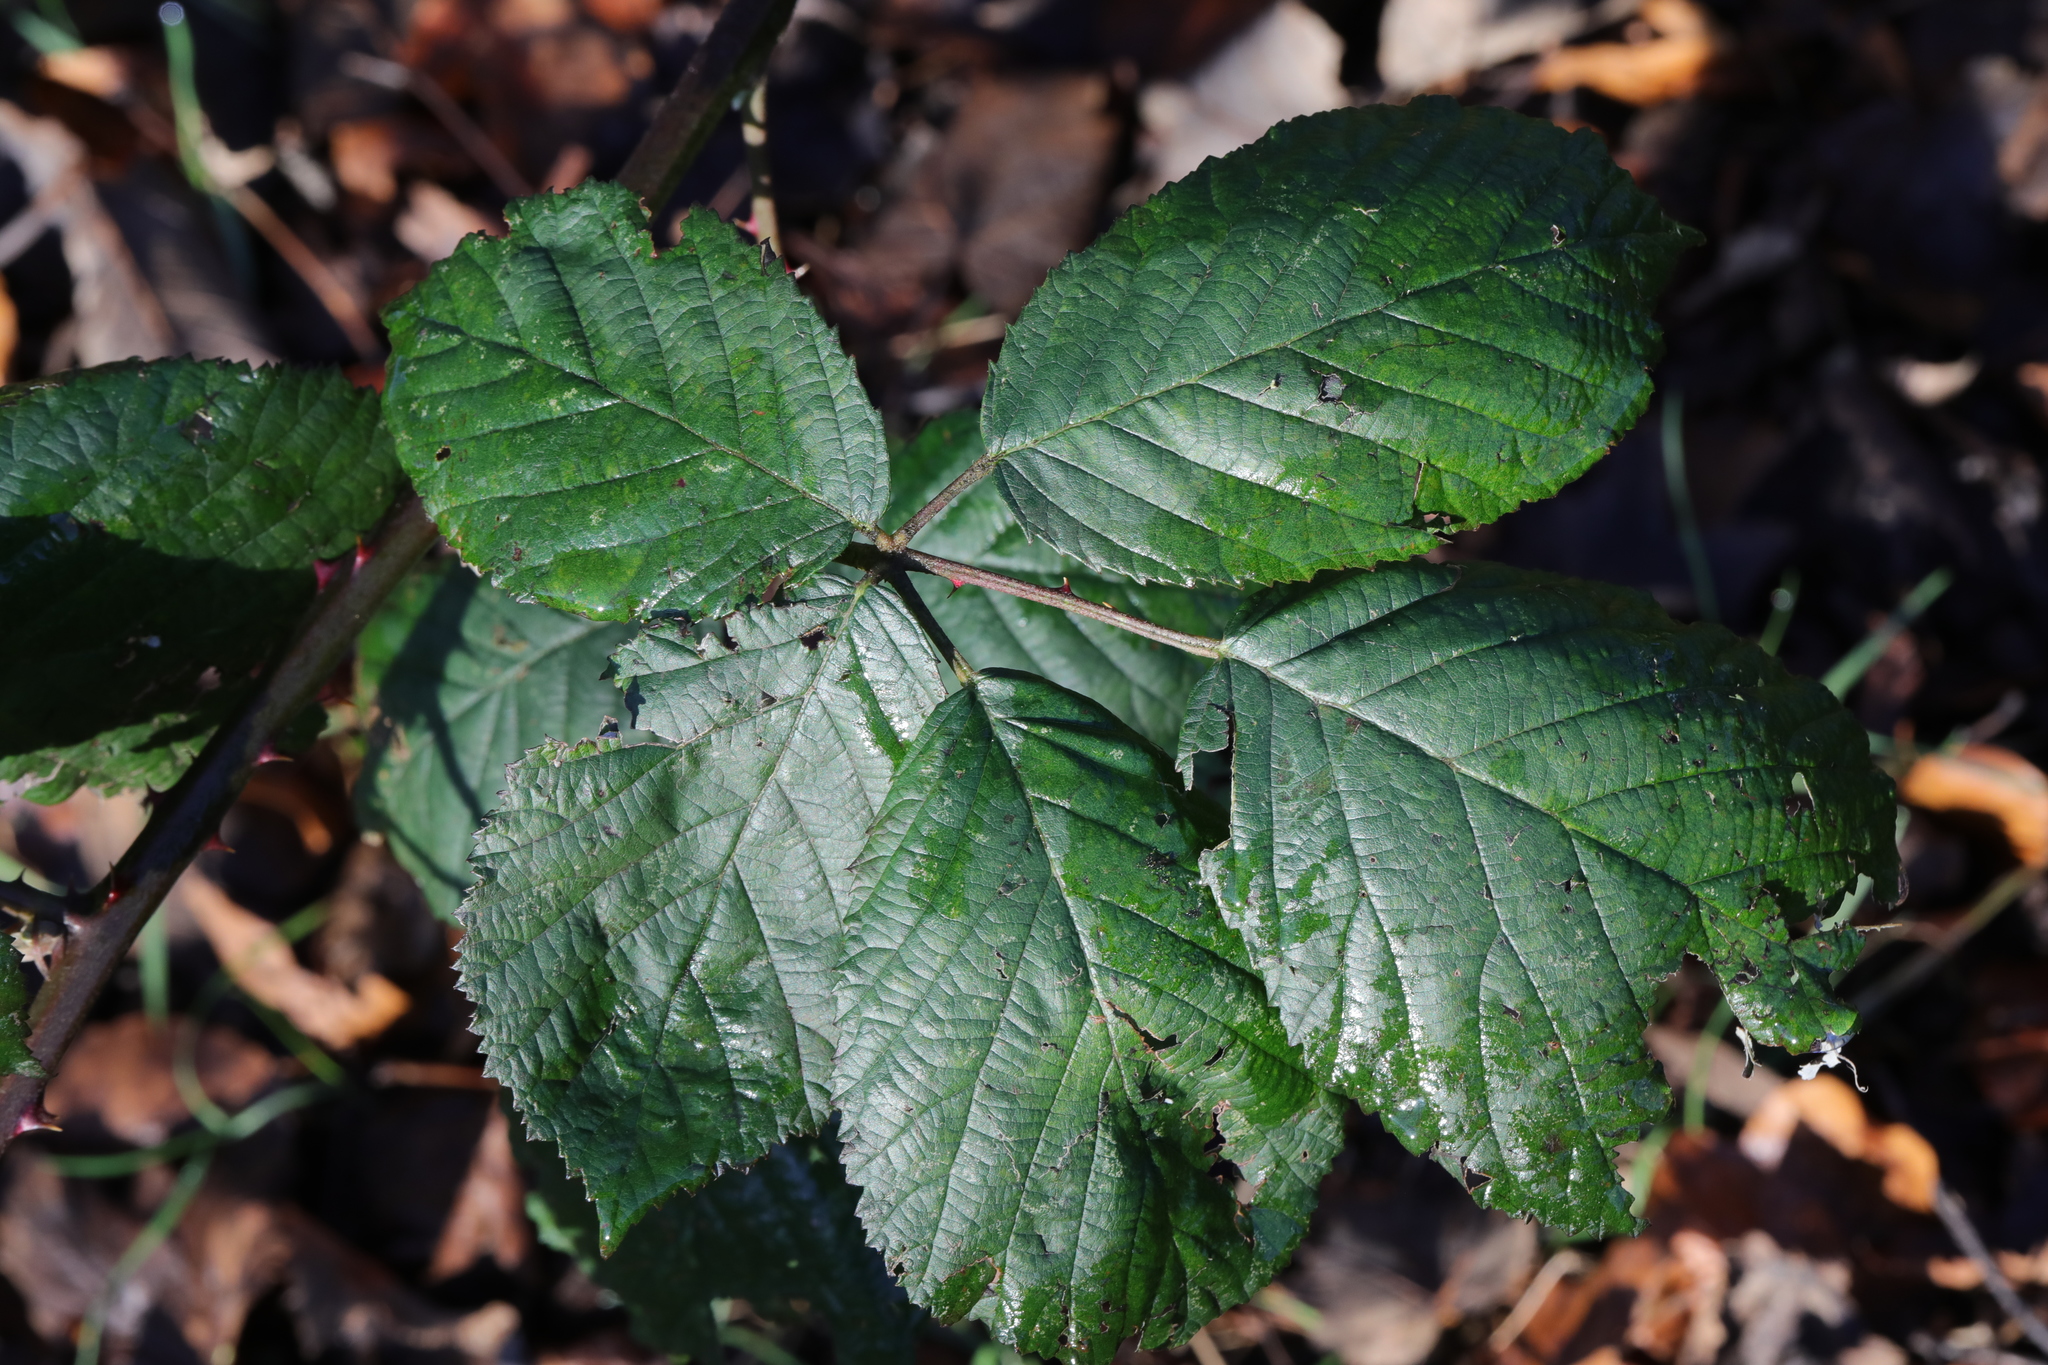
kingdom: Plantae
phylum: Tracheophyta
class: Magnoliopsida
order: Rosales
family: Rosaceae
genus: Rubus
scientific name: Rubus armeniacus
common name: Himalayan blackberry
